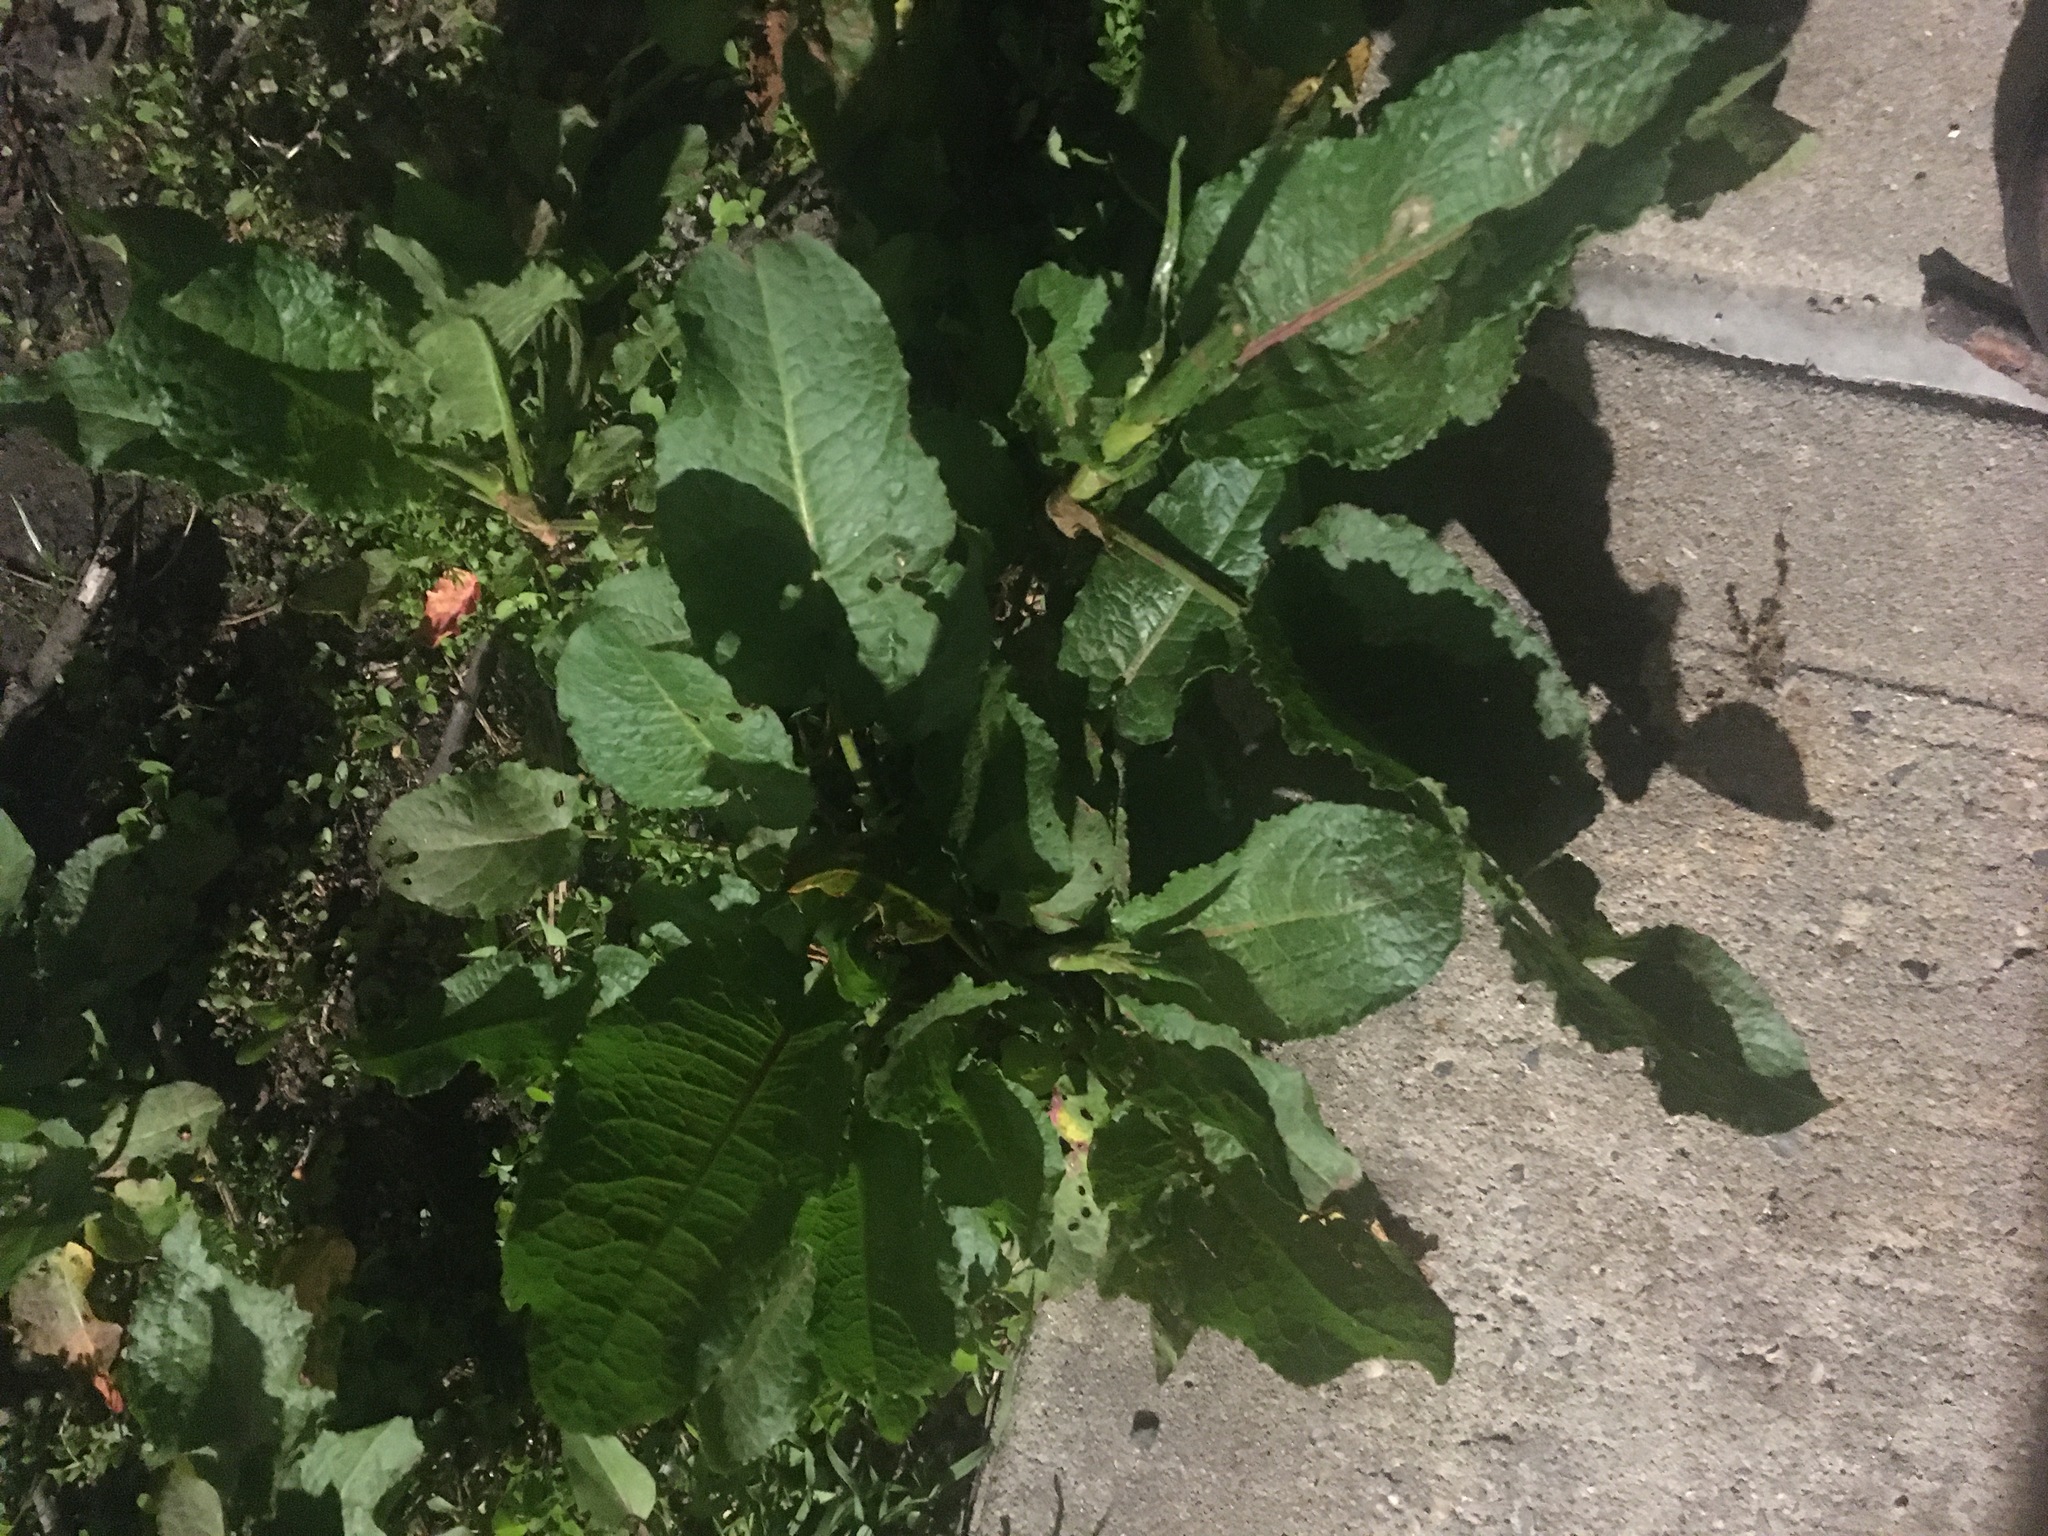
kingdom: Plantae
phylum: Tracheophyta
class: Magnoliopsida
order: Caryophyllales
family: Polygonaceae
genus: Rumex
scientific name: Rumex obtusifolius
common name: Bitter dock
